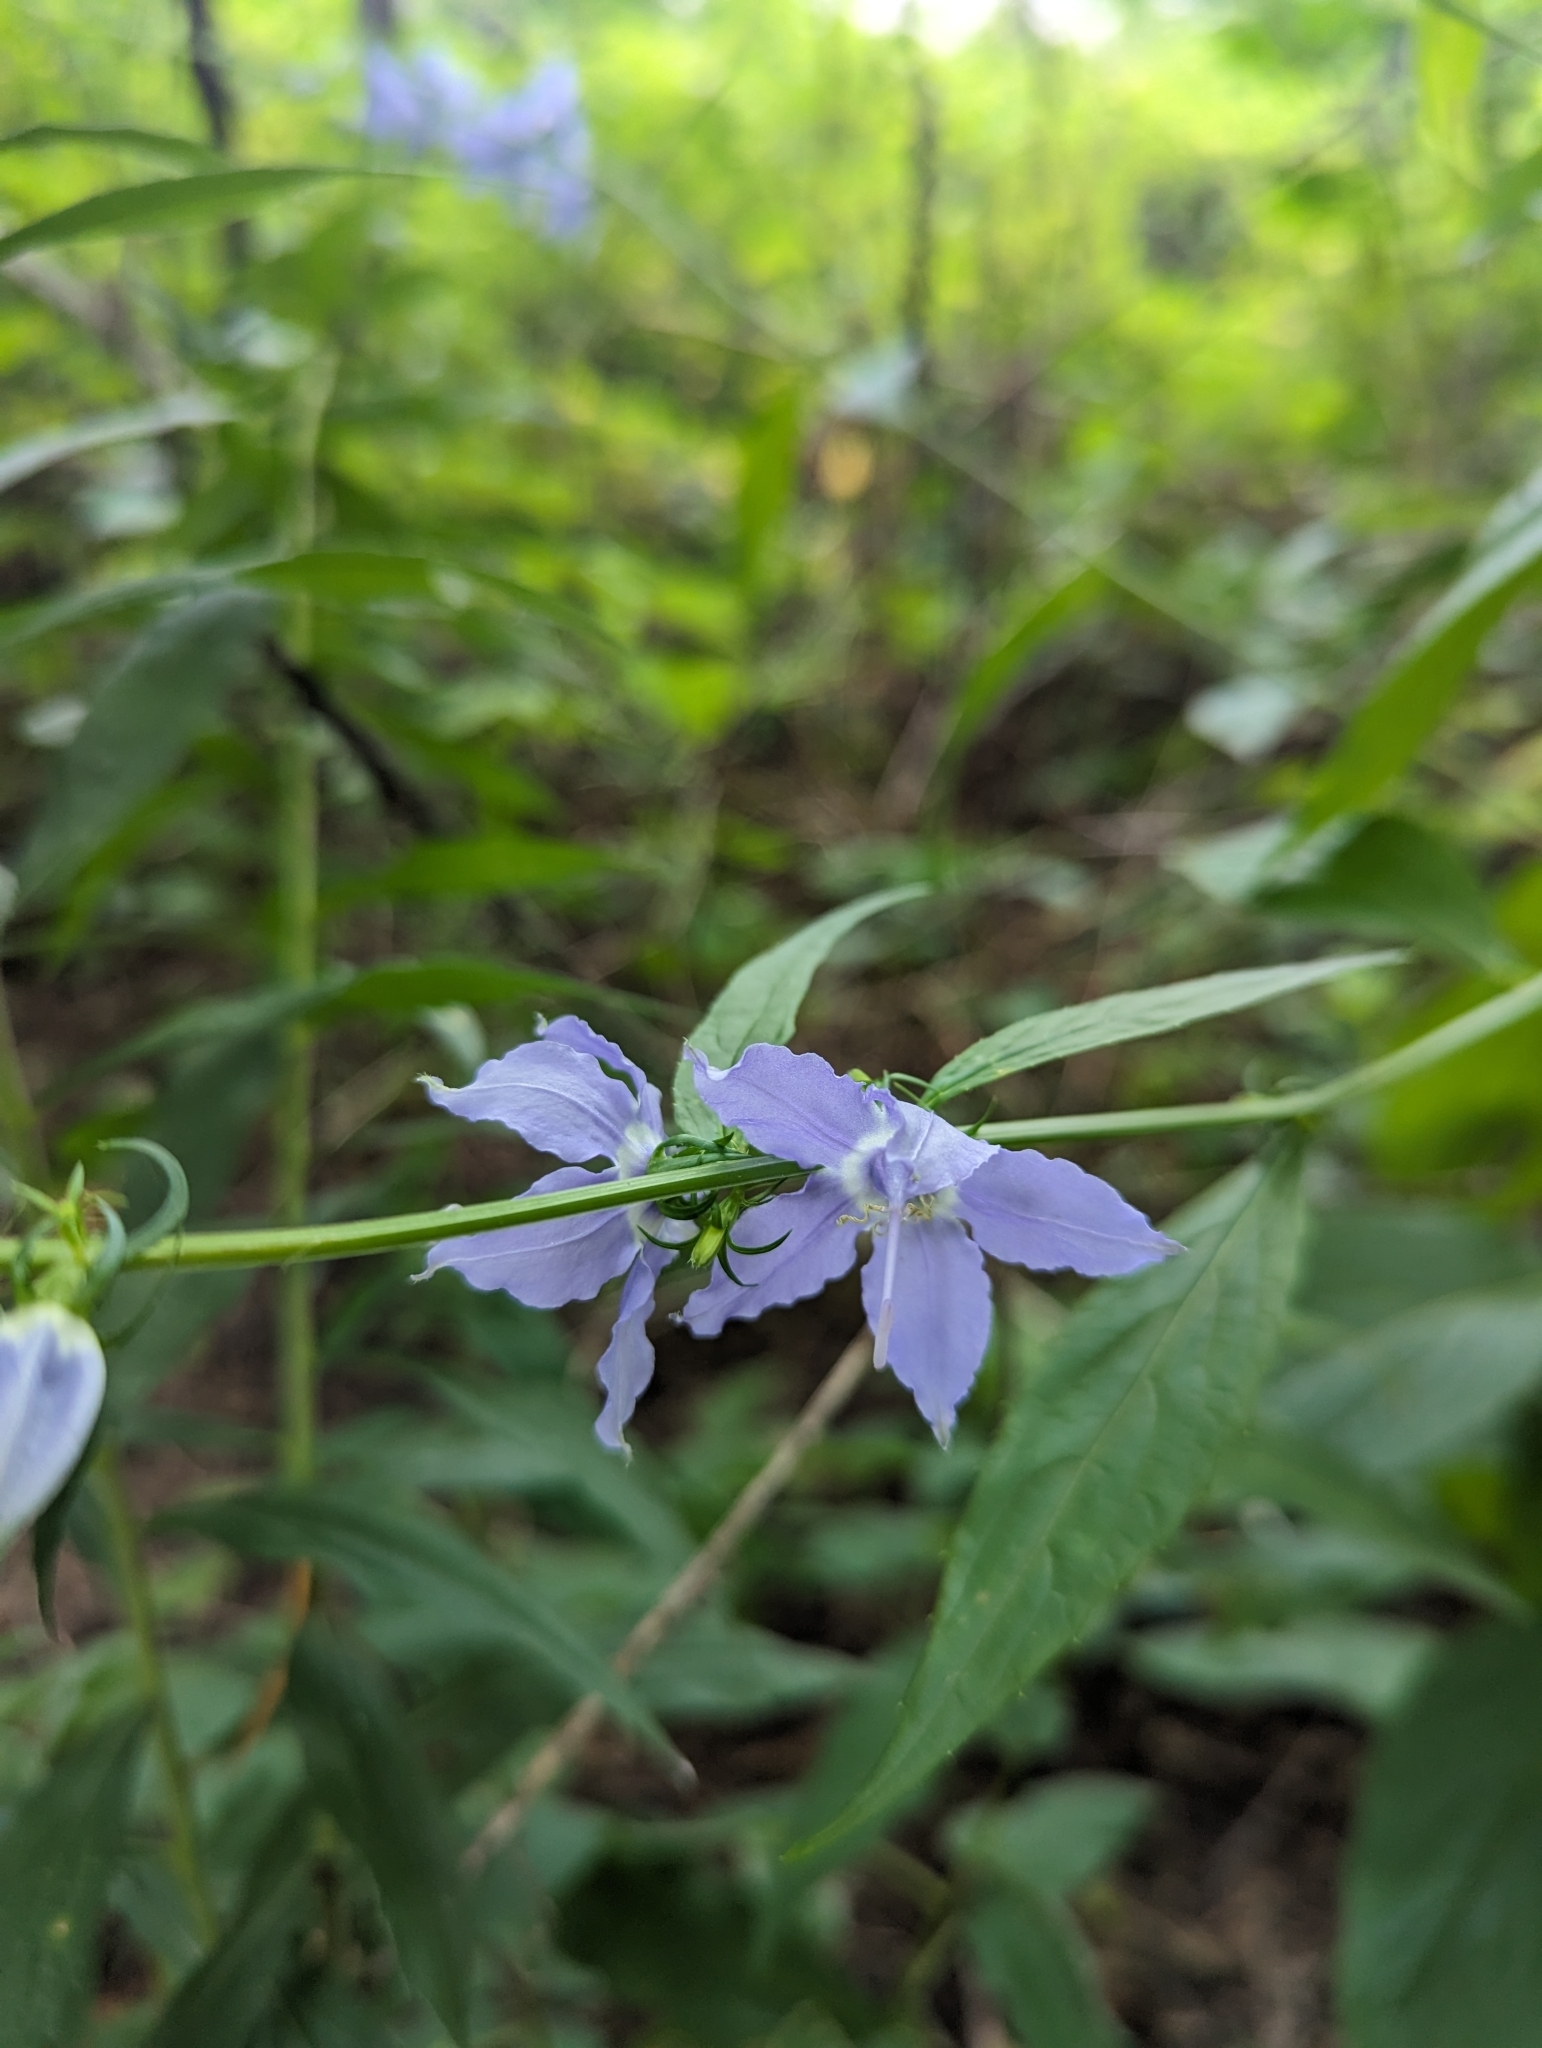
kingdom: Plantae
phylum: Tracheophyta
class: Magnoliopsida
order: Asterales
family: Campanulaceae
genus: Campanulastrum
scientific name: Campanulastrum americanum
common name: American bellflower
